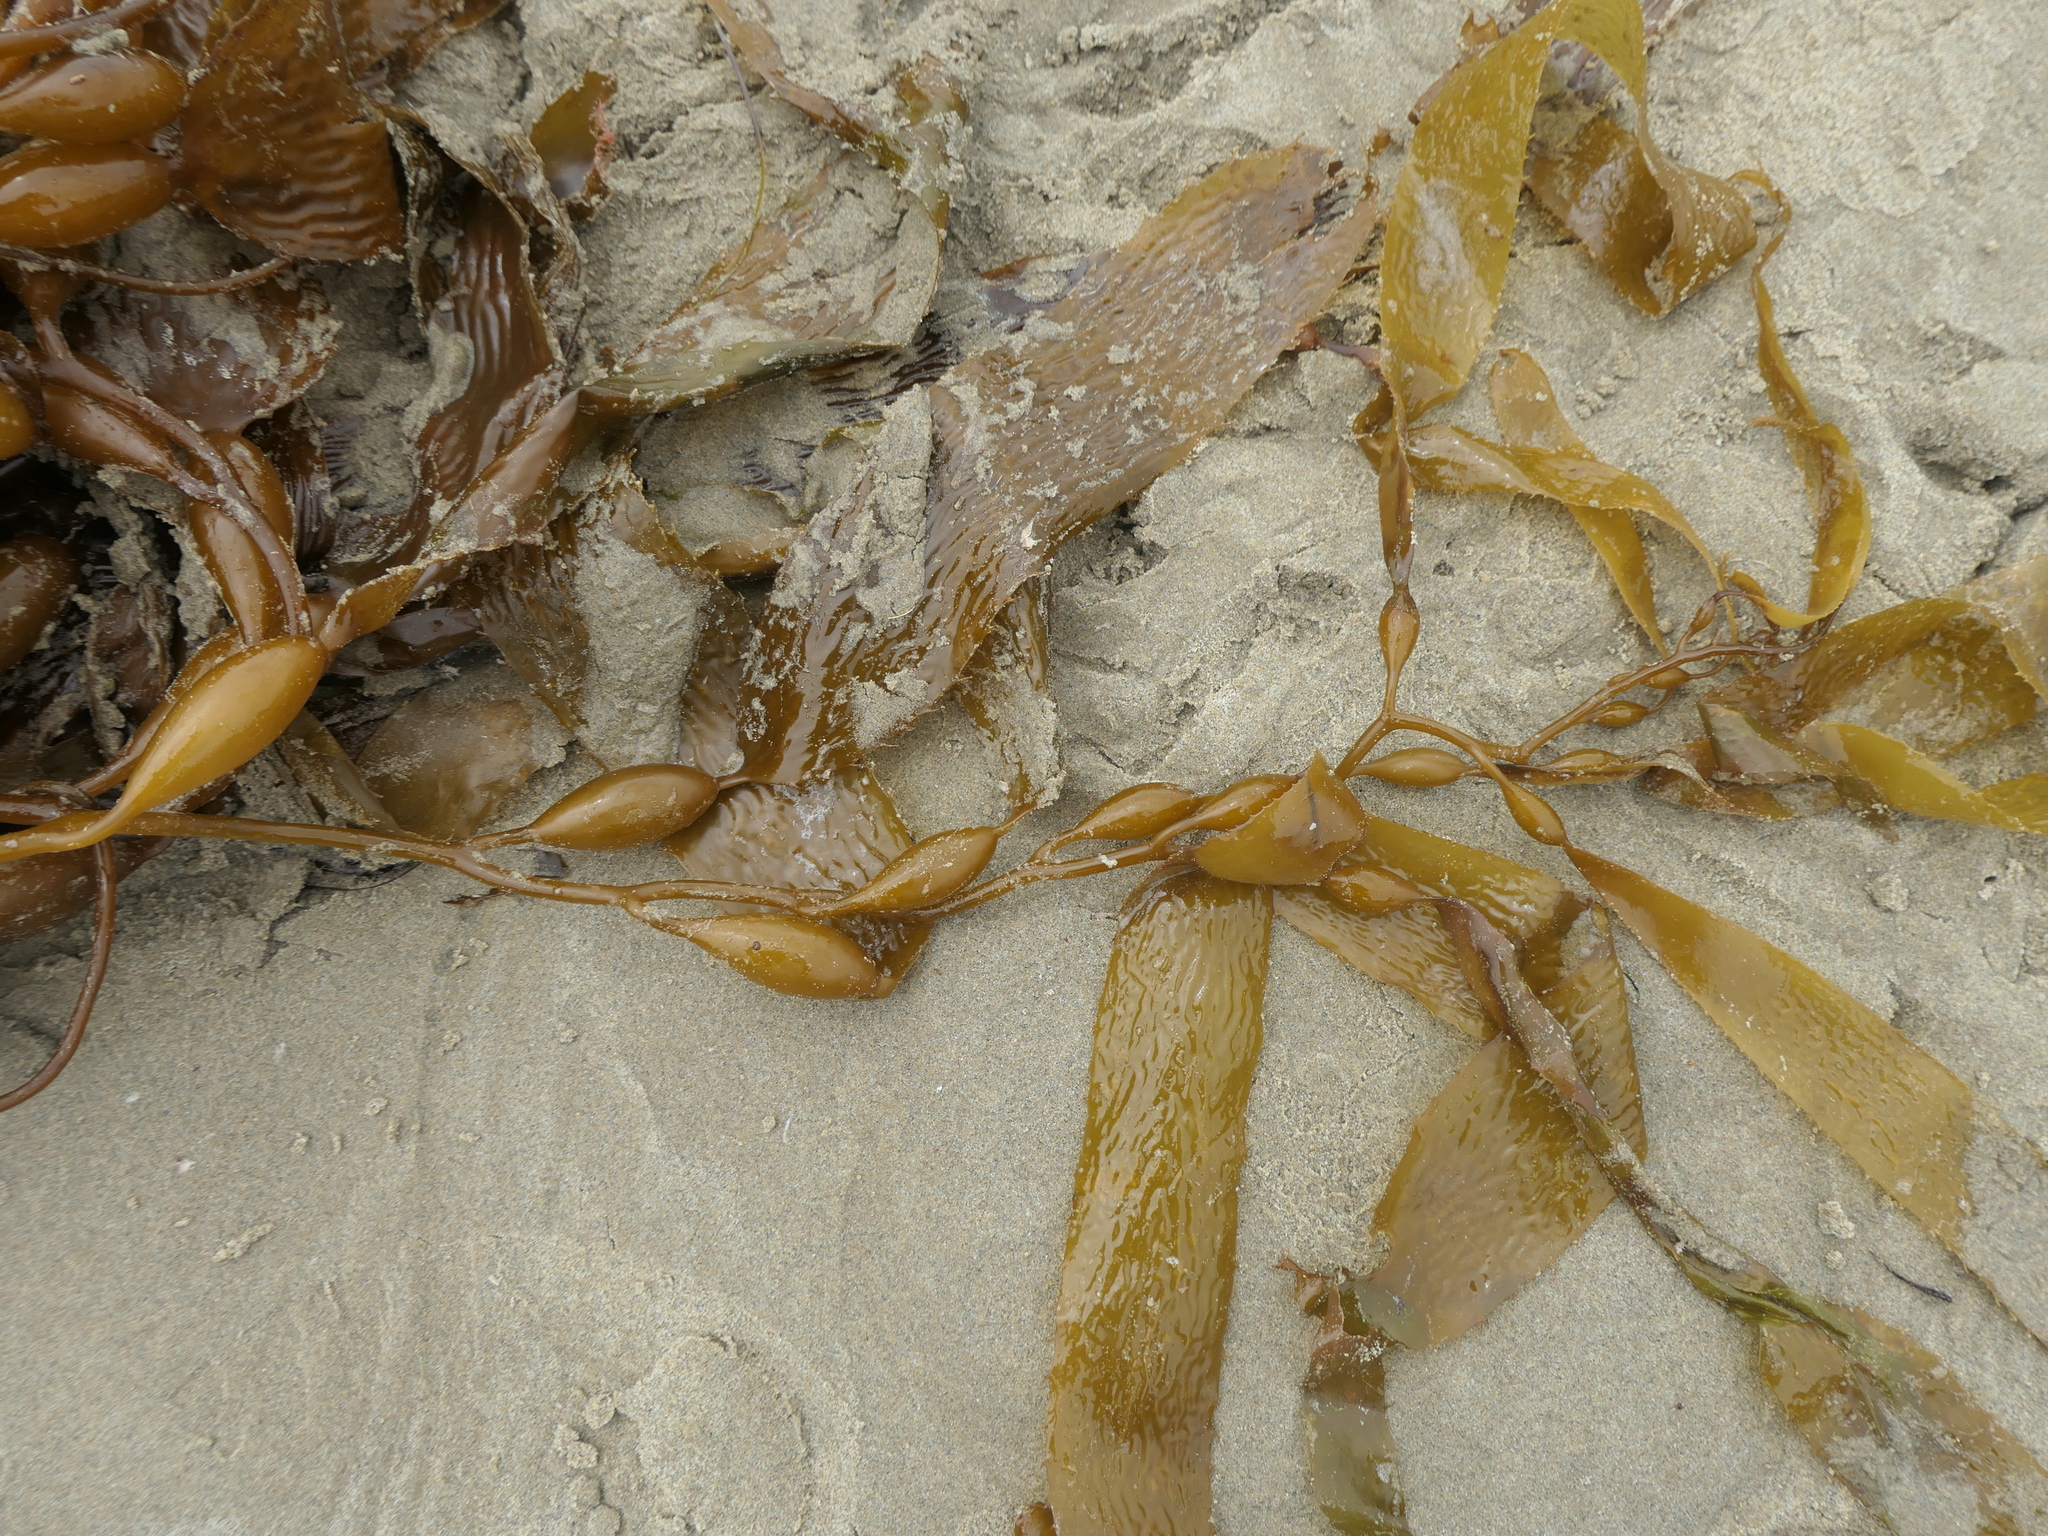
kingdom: Chromista
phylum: Ochrophyta
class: Phaeophyceae
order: Laminariales
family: Laminariaceae
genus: Macrocystis
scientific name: Macrocystis pyrifera
